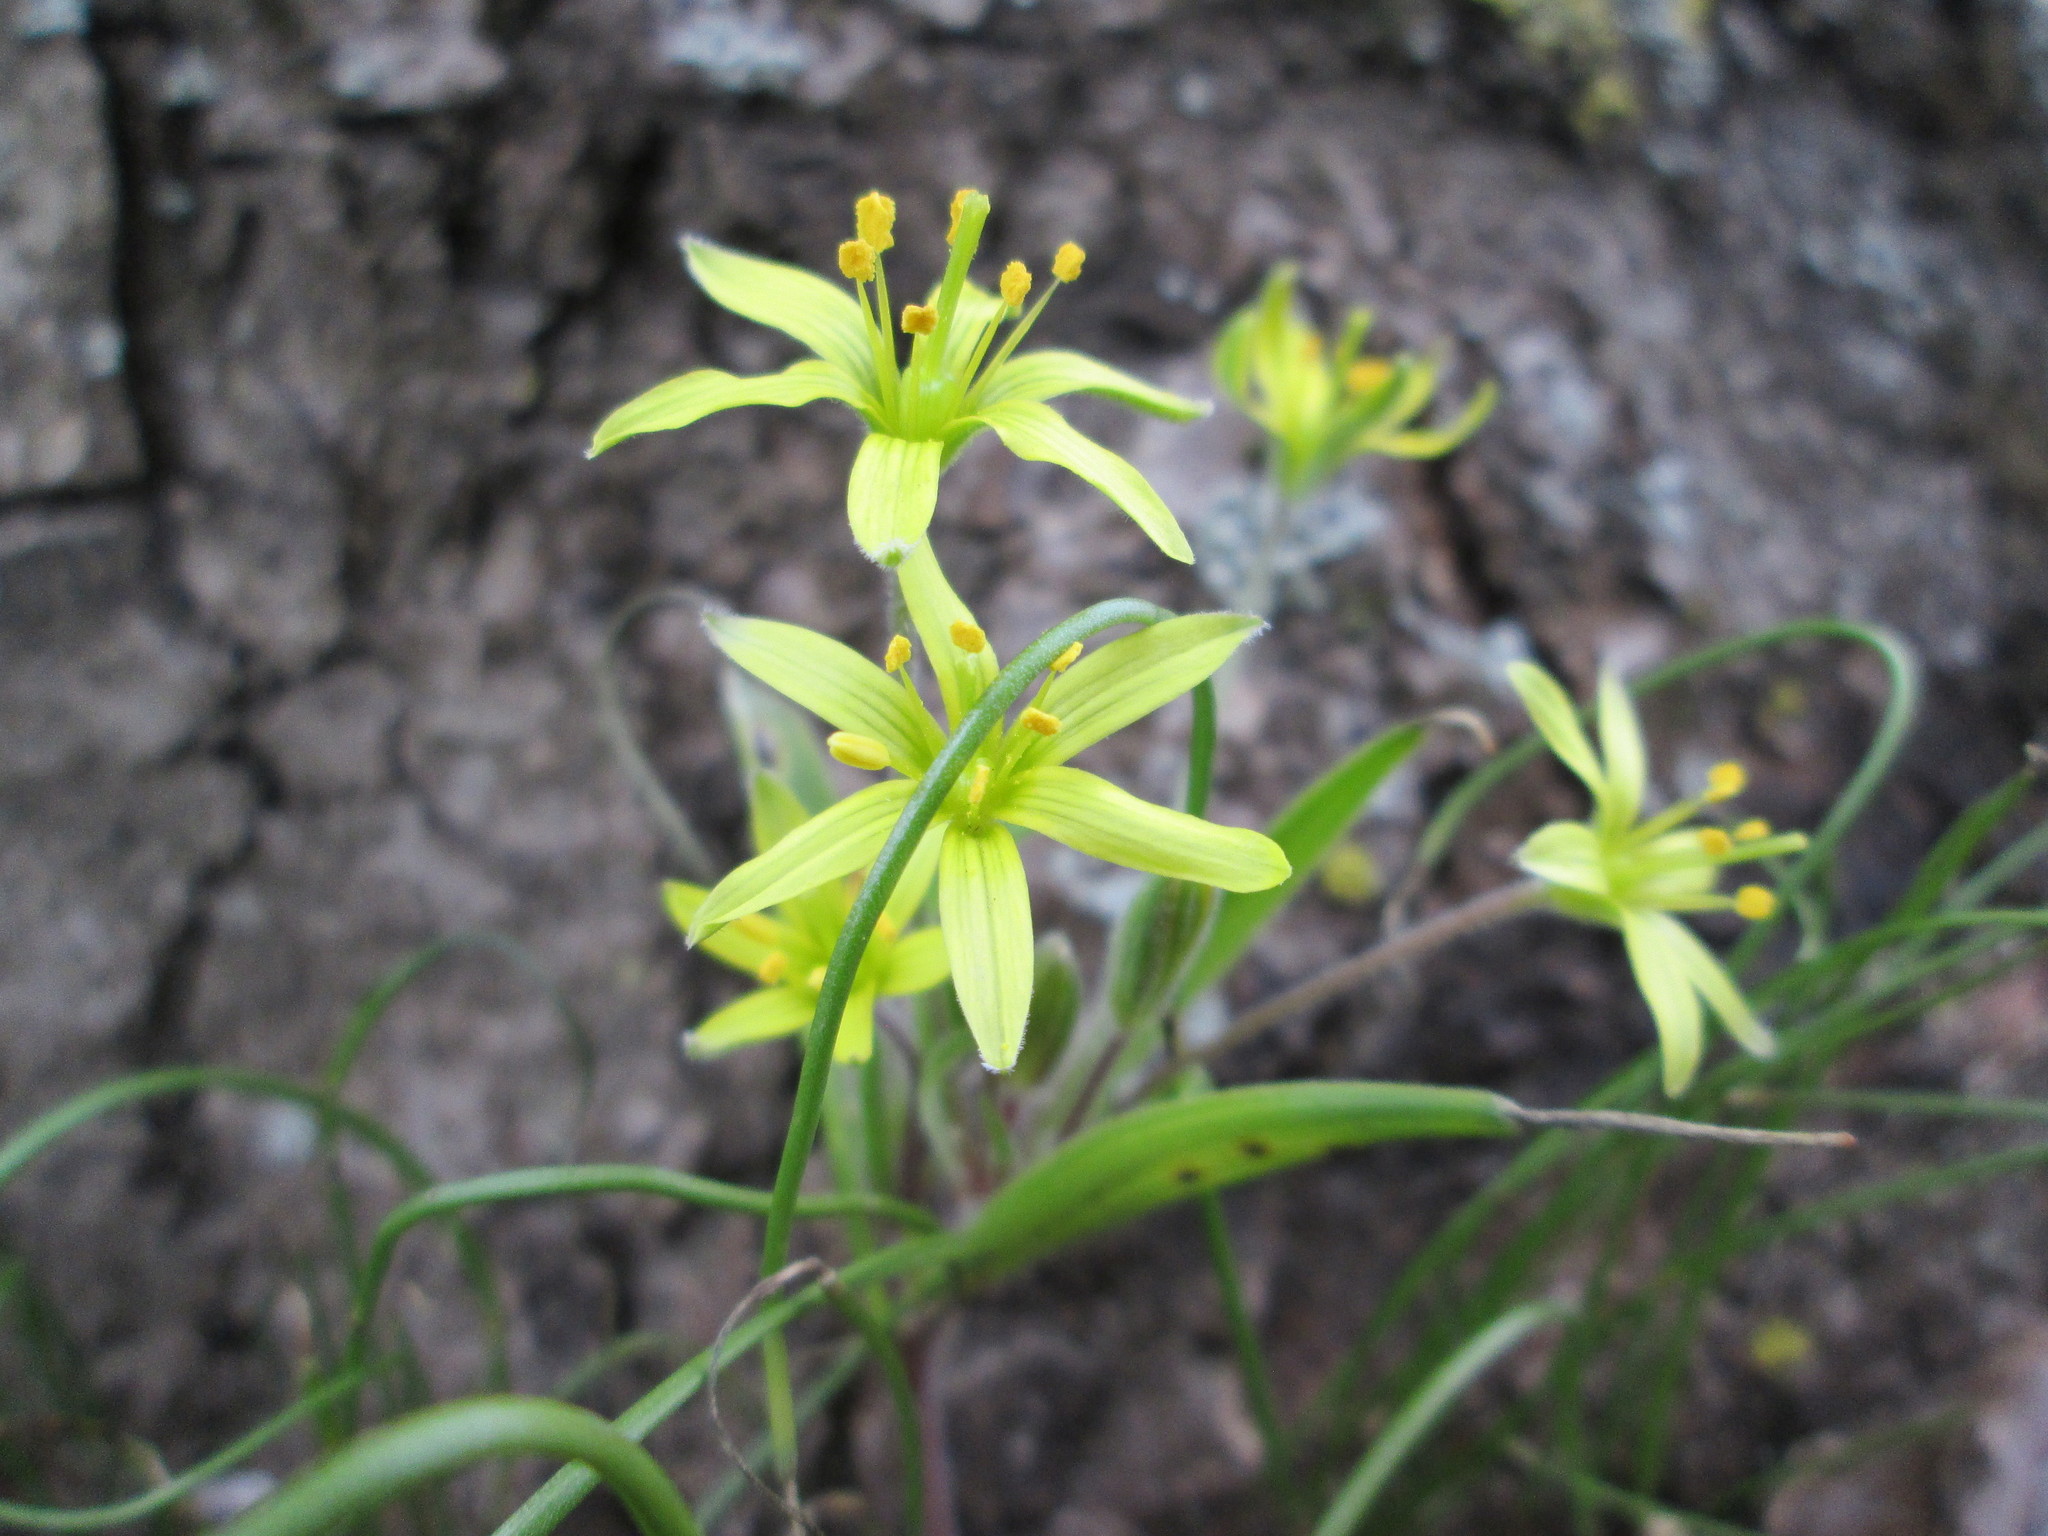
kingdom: Plantae
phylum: Tracheophyta
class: Liliopsida
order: Liliales
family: Liliaceae
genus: Gagea
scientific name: Gagea villosa
